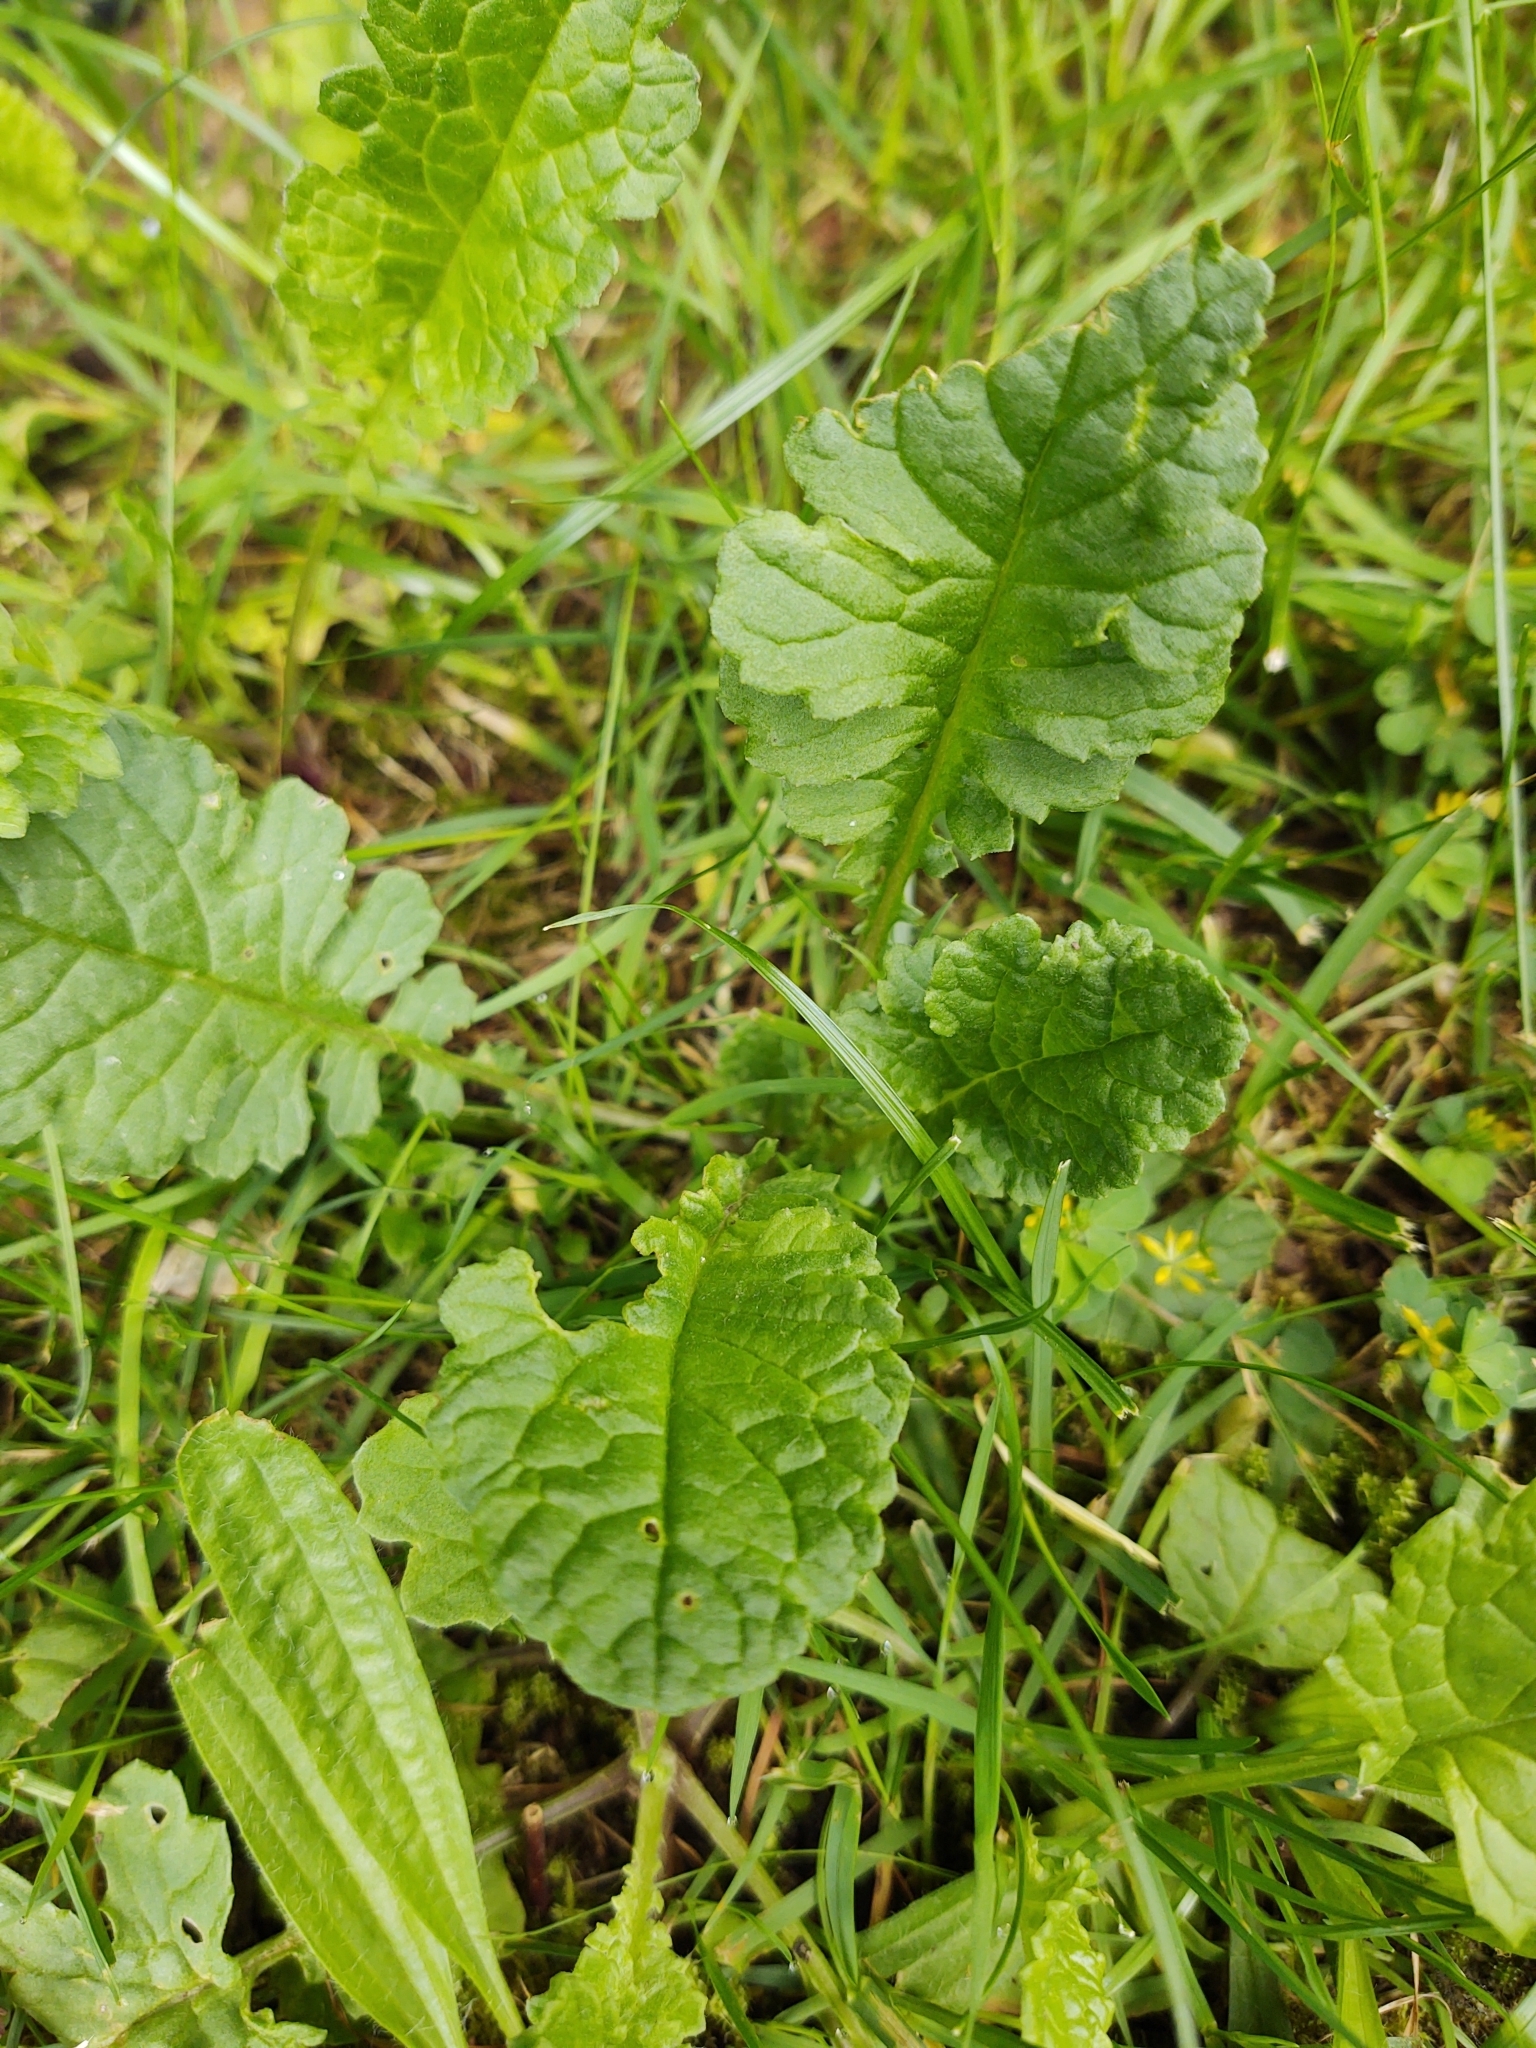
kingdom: Plantae
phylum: Tracheophyta
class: Magnoliopsida
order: Asterales
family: Asteraceae
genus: Jacobaea
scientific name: Jacobaea vulgaris
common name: Stinking willie
